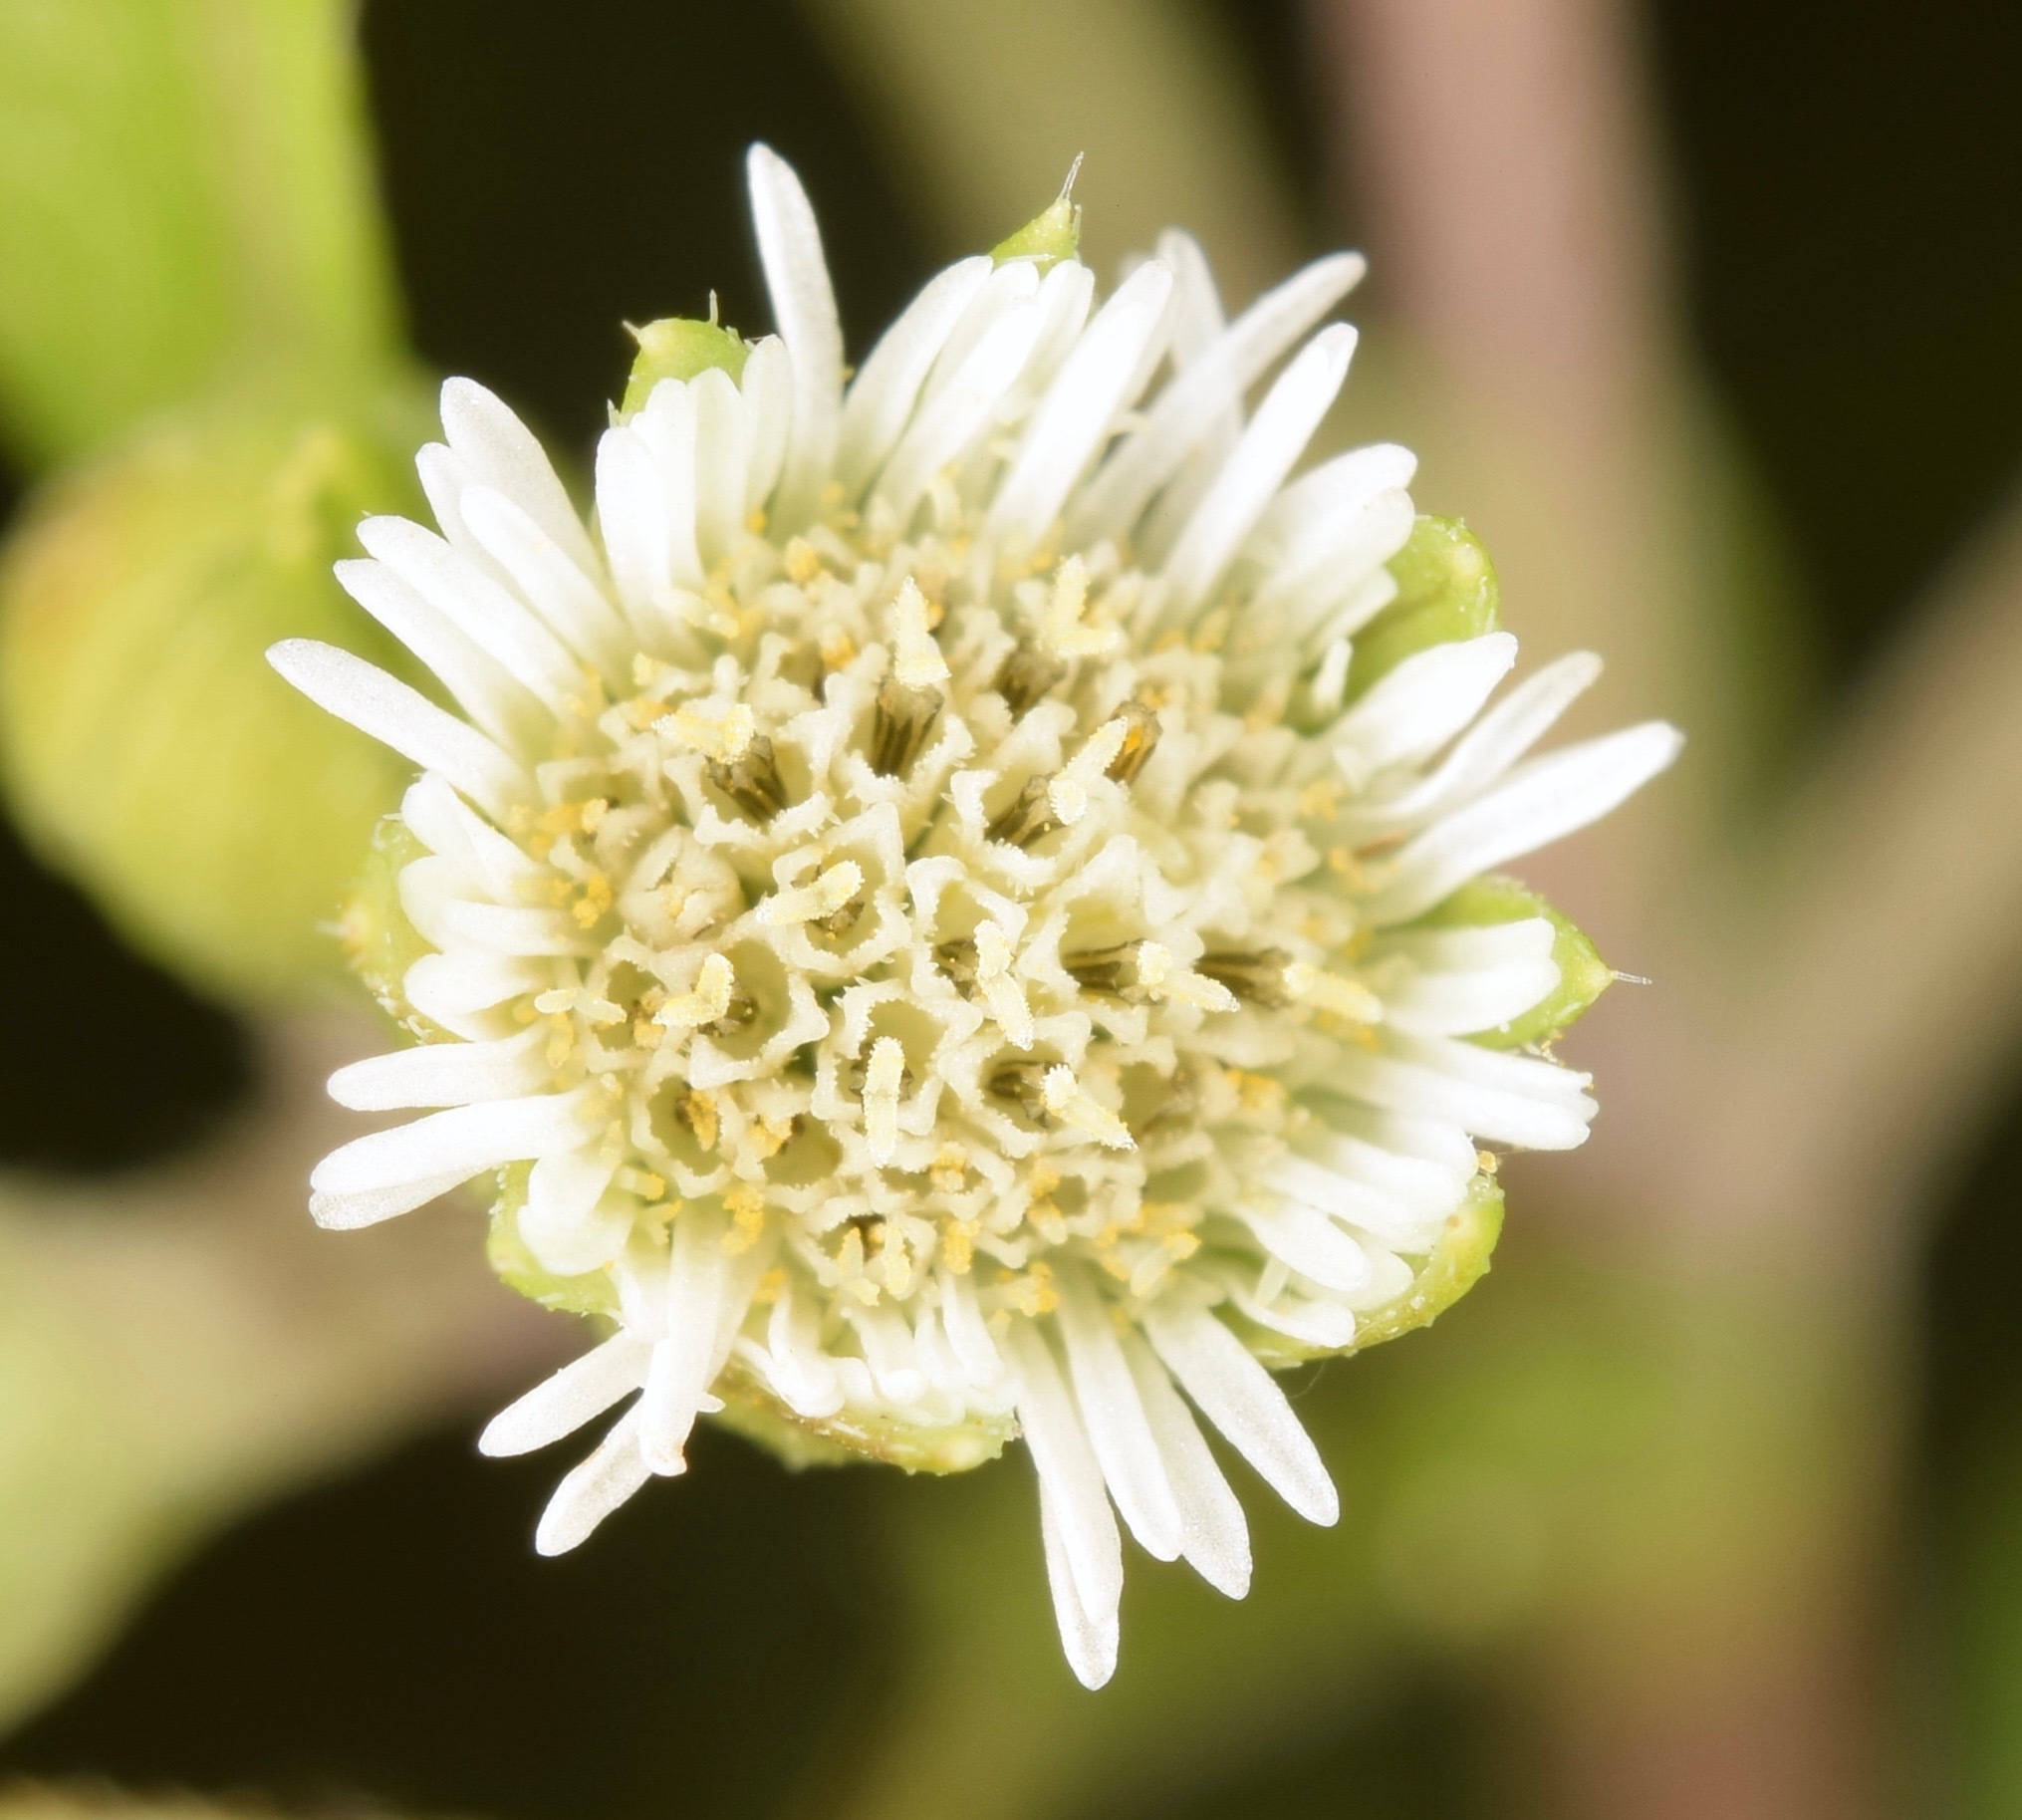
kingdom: Plantae
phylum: Tracheophyta
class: Magnoliopsida
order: Asterales
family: Asteraceae
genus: Eclipta
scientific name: Eclipta prostrata
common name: False daisy
